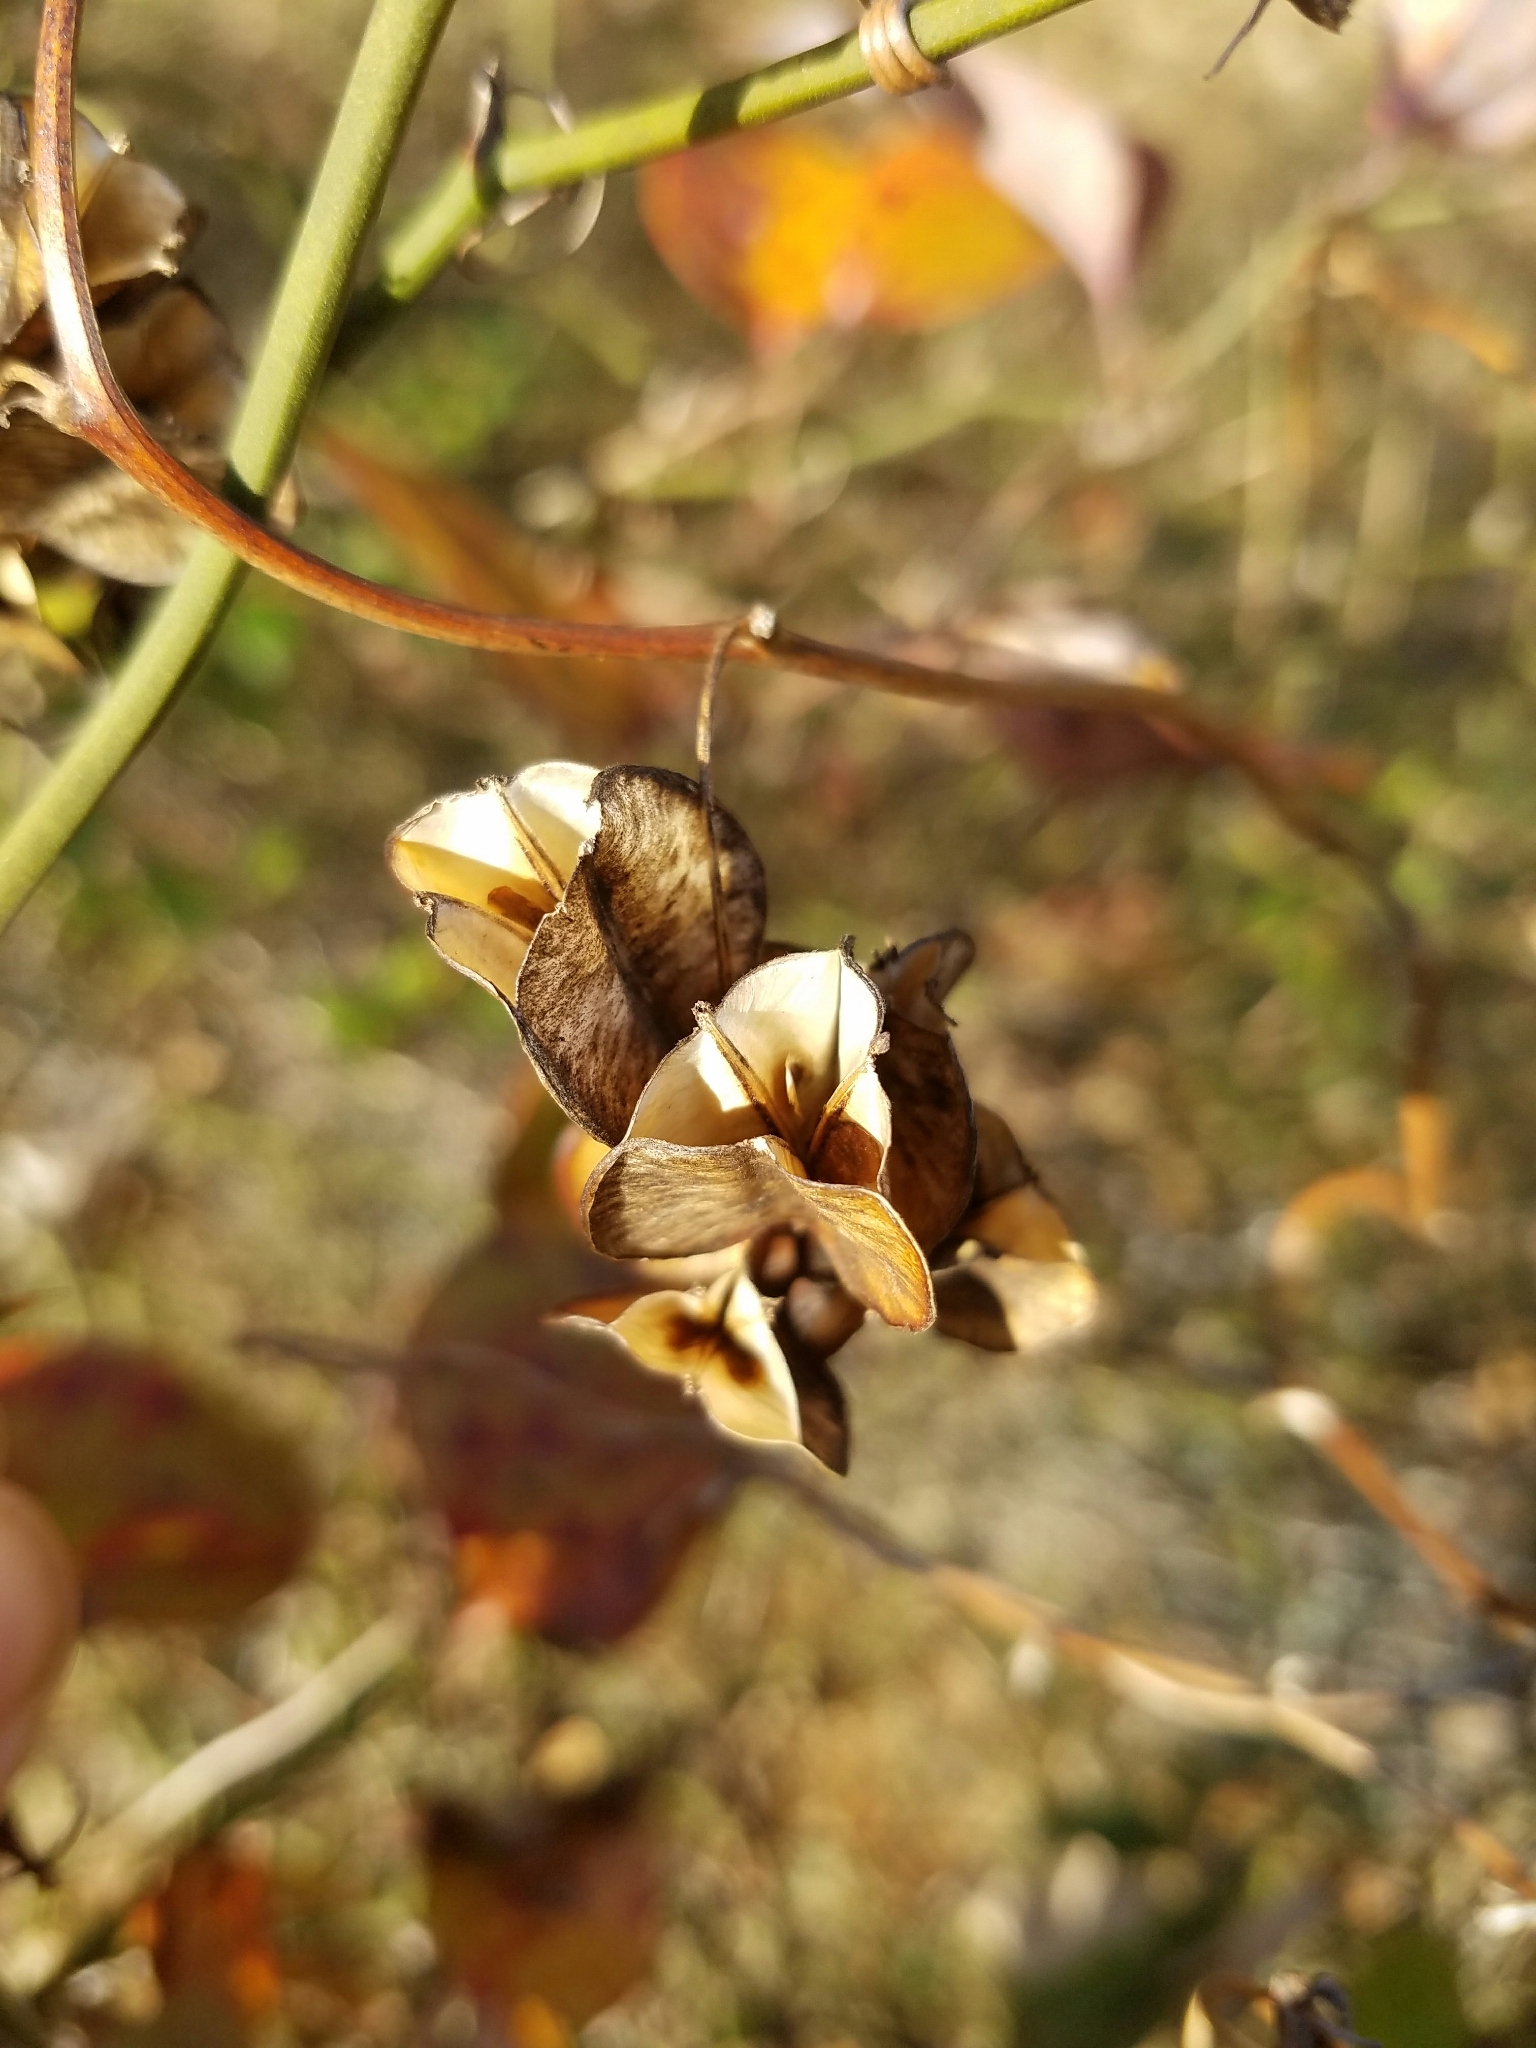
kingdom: Plantae
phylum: Tracheophyta
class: Liliopsida
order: Dioscoreales
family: Dioscoreaceae
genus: Dioscorea
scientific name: Dioscorea villosa
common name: Wild yam
